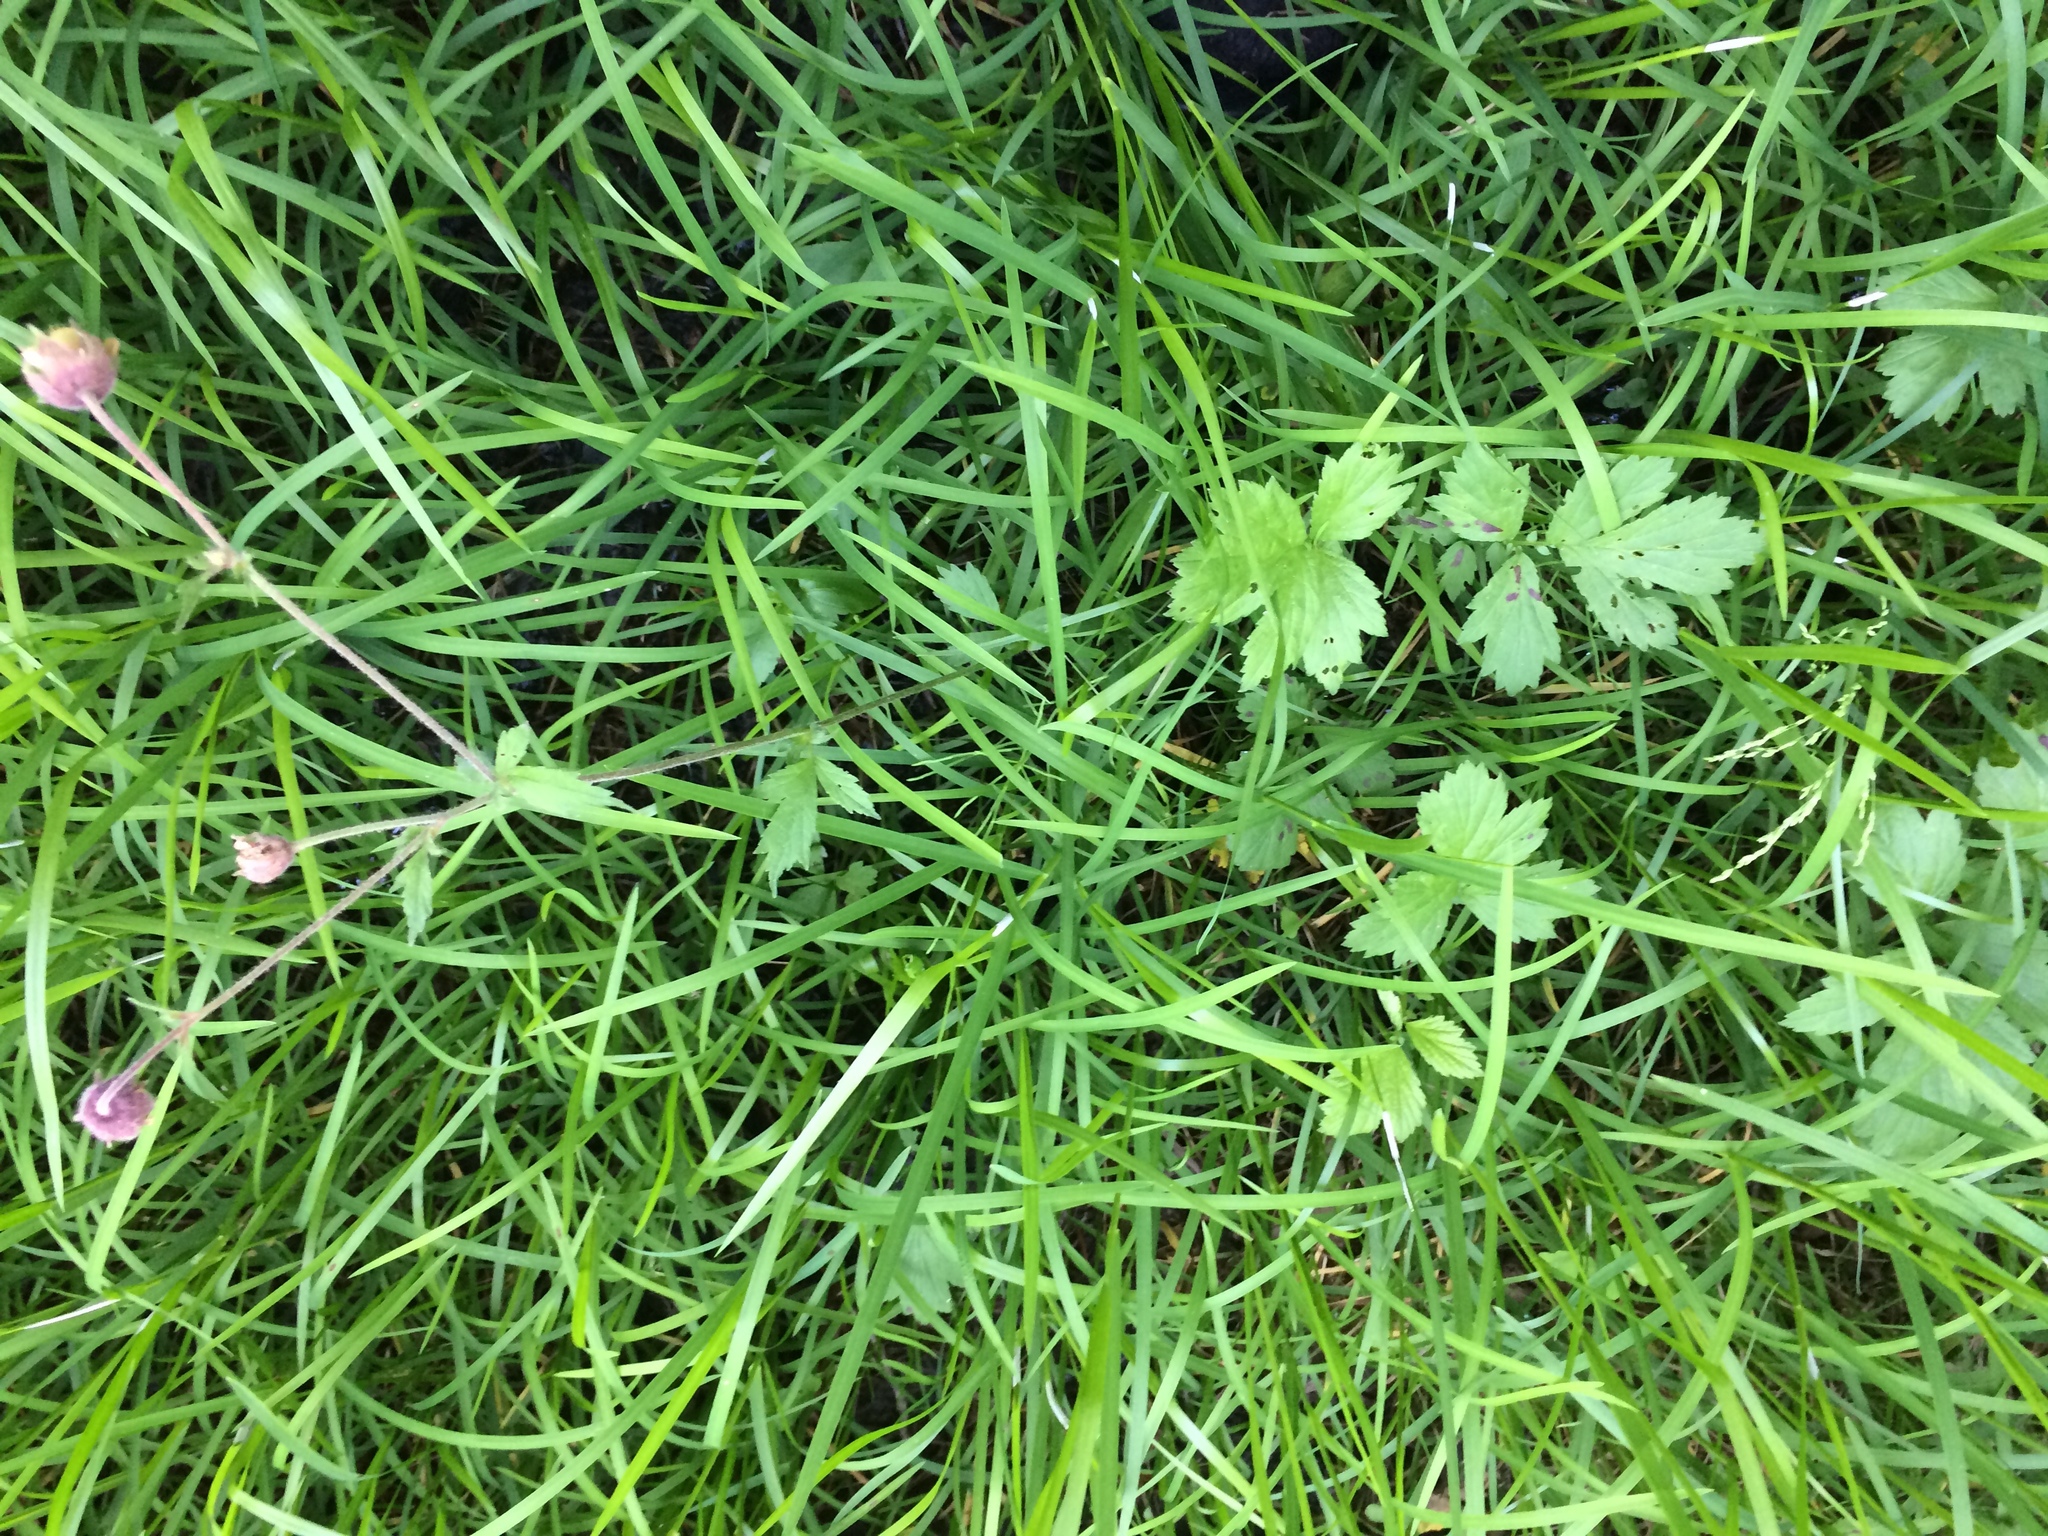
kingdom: Plantae
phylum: Tracheophyta
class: Magnoliopsida
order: Rosales
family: Rosaceae
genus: Geum
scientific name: Geum rivale
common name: Water avens
